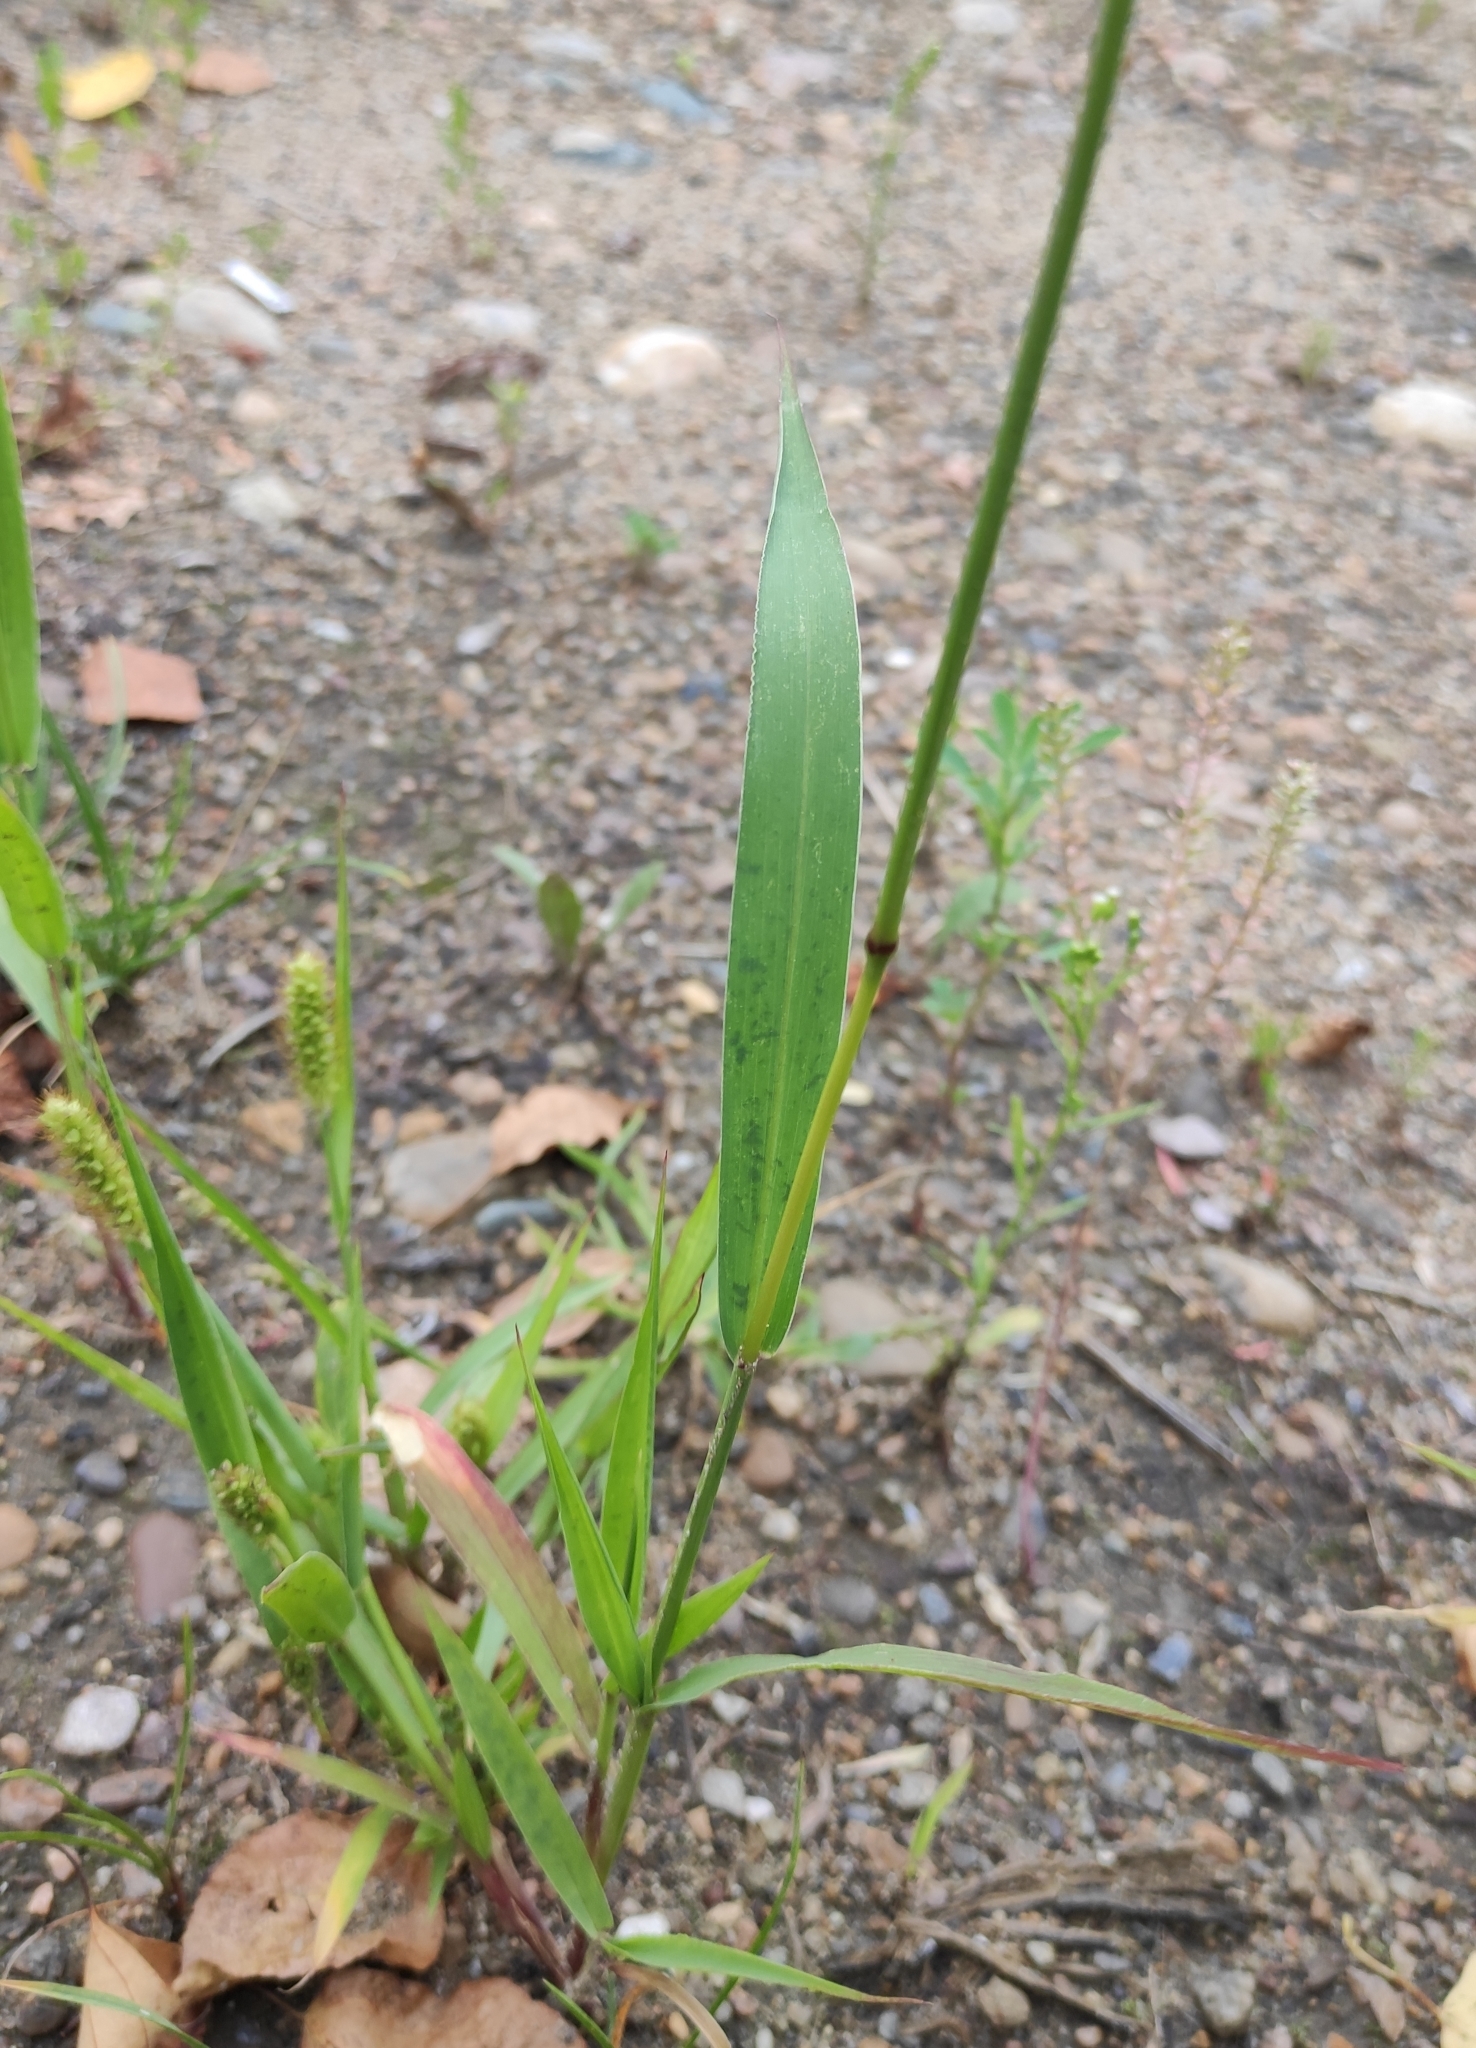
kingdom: Plantae
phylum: Tracheophyta
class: Liliopsida
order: Poales
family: Poaceae
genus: Setaria
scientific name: Setaria viridis
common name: Green bristlegrass
